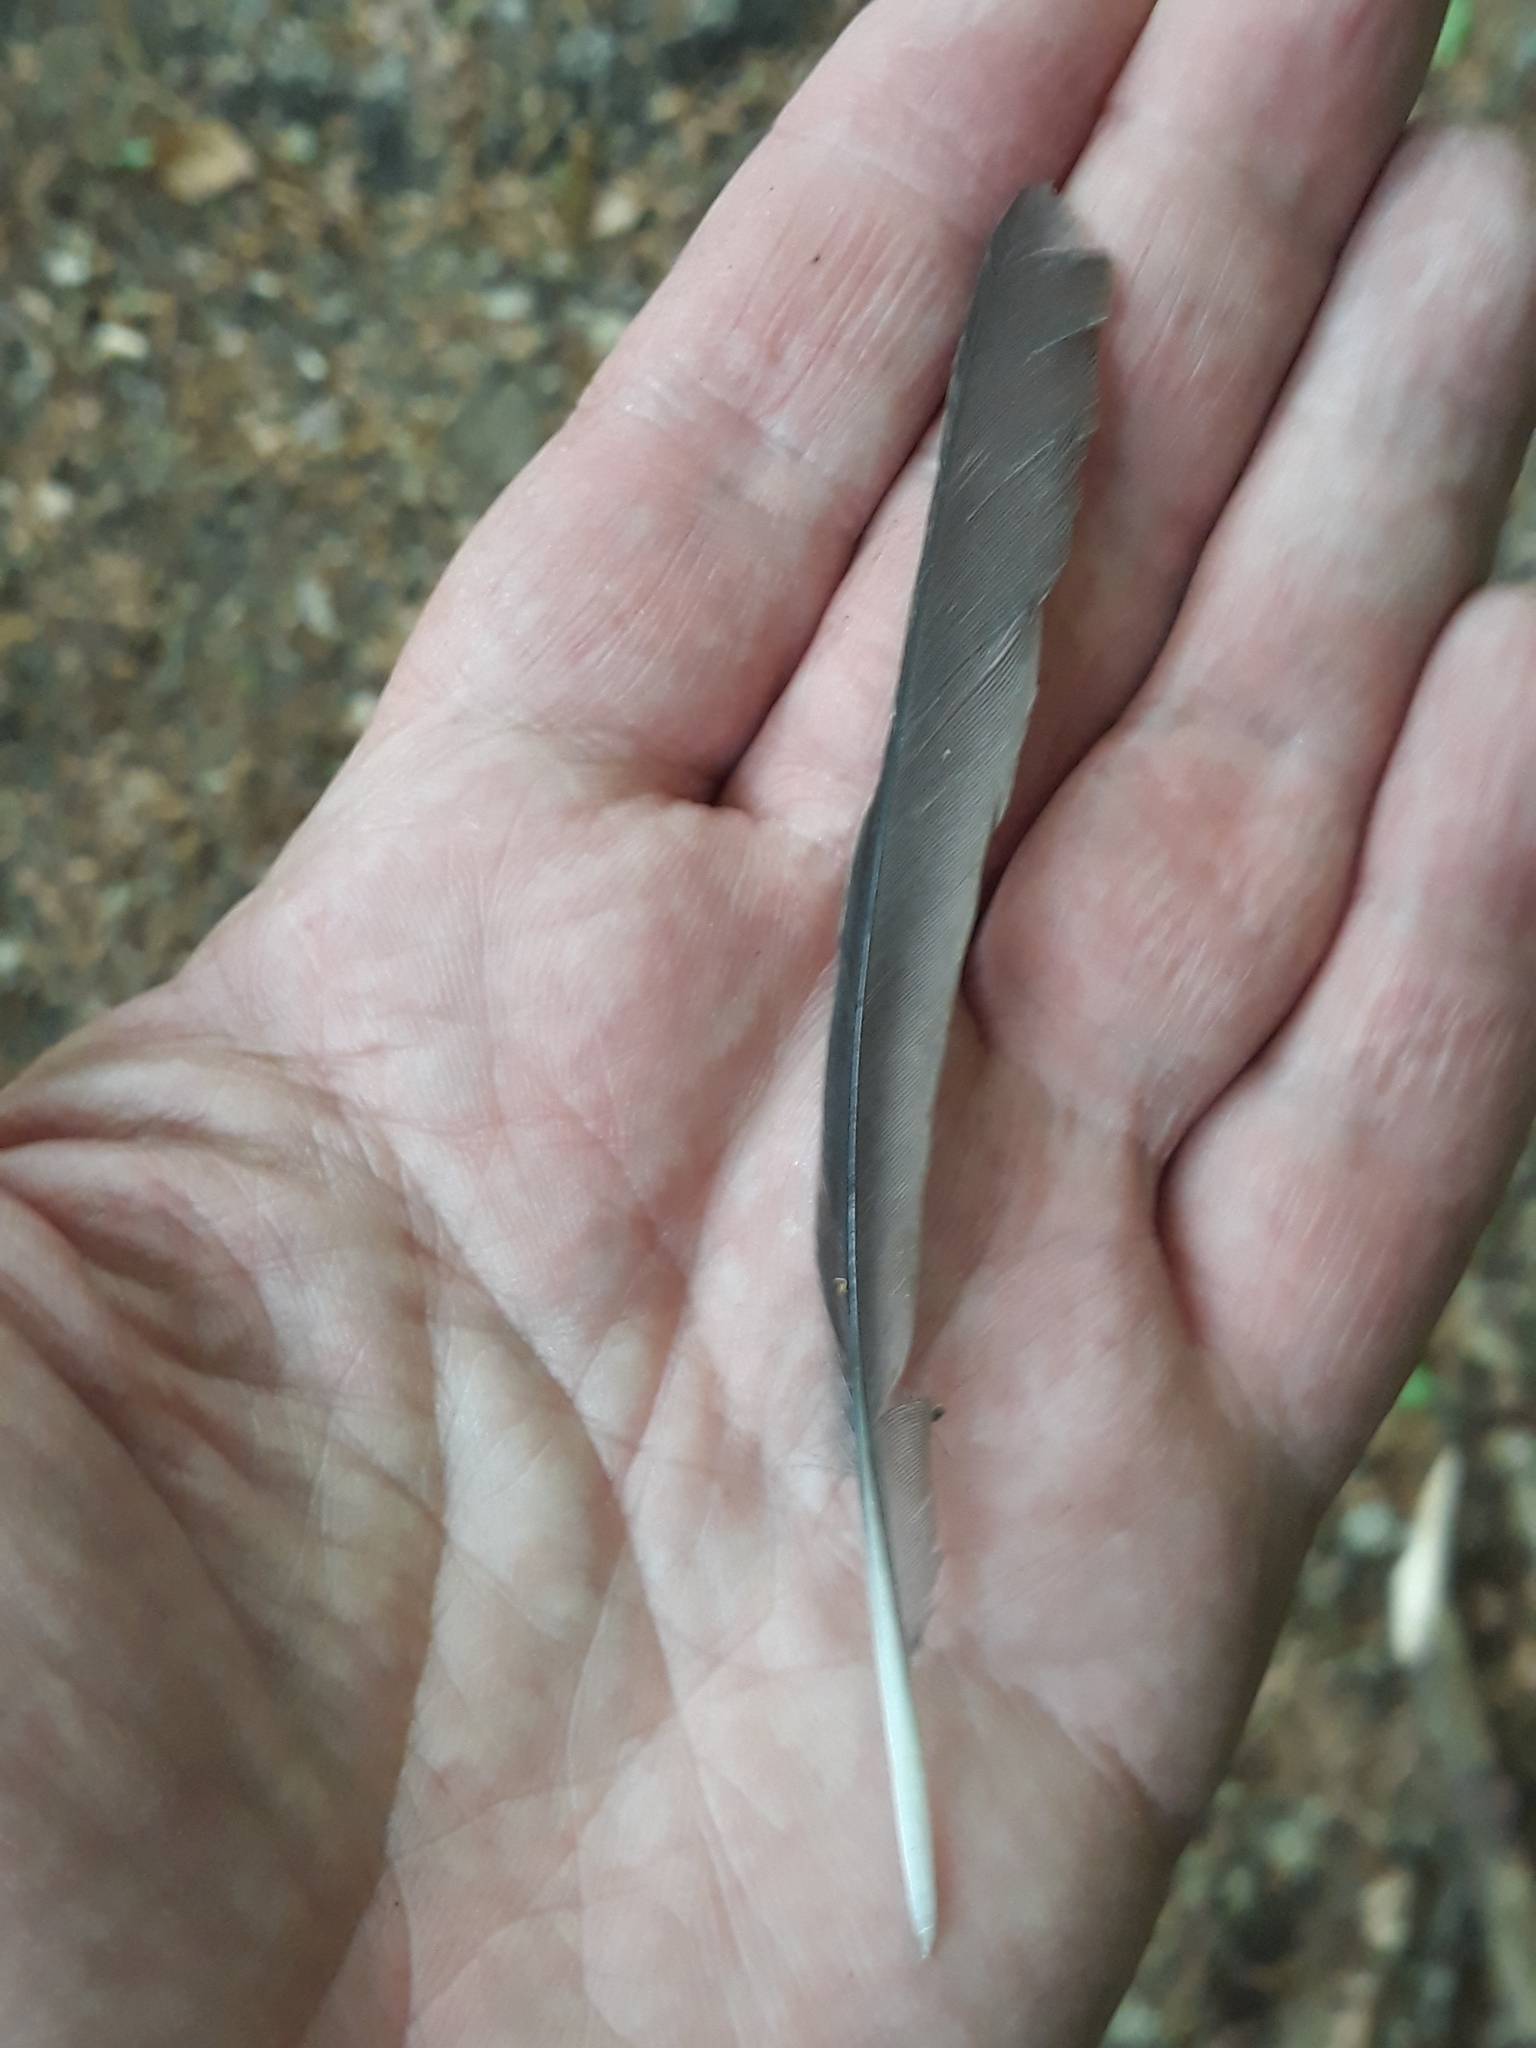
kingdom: Animalia
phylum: Chordata
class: Aves
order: Passeriformes
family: Turdidae
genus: Turdus
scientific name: Turdus merula
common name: Common blackbird
